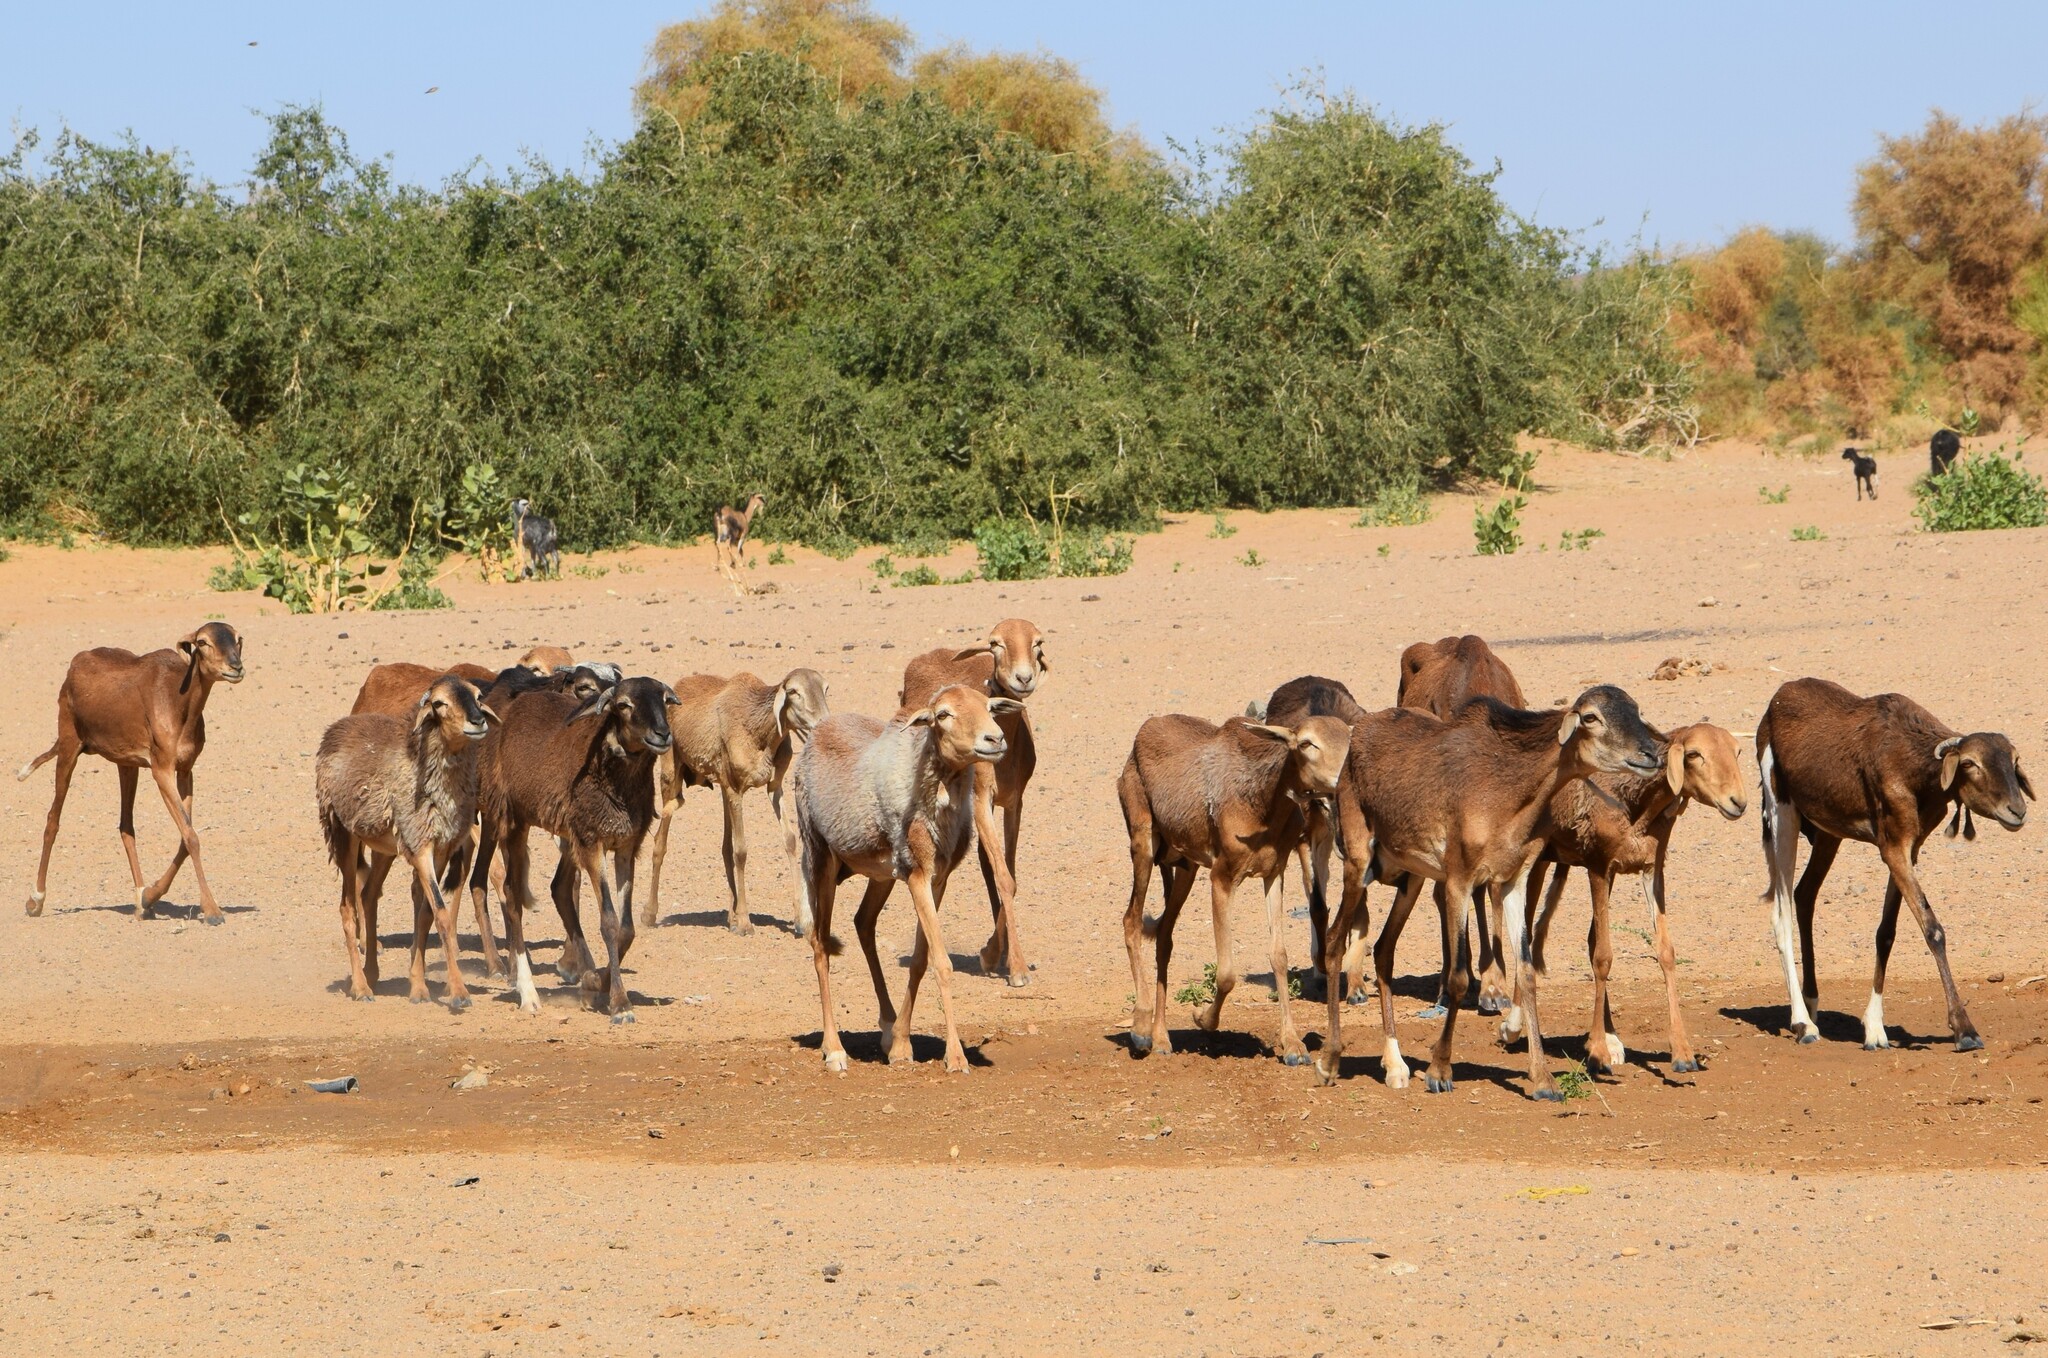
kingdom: Animalia
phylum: Chordata
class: Mammalia
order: Artiodactyla
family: Bovidae
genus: Ovis
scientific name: Ovis aries
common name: Domestic sheep
